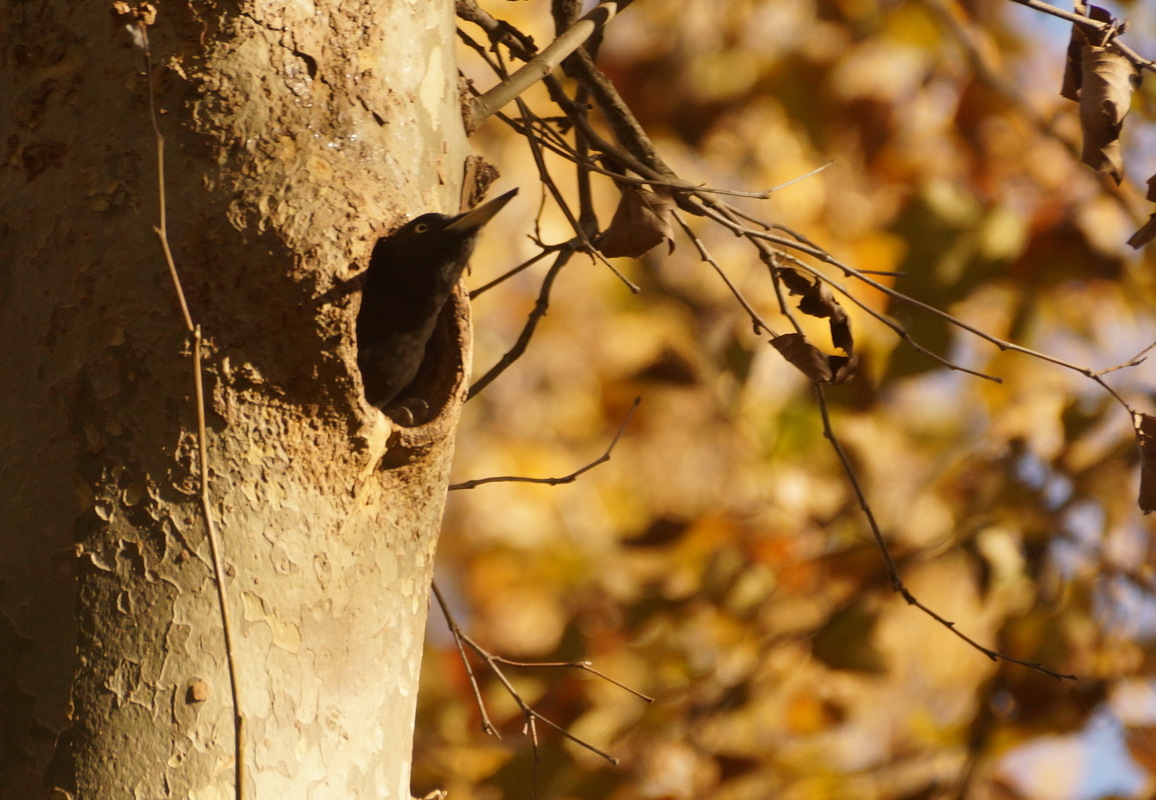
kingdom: Animalia
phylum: Chordata
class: Aves
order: Piciformes
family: Picidae
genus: Dryocopus
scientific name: Dryocopus martius
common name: Black woodpecker
